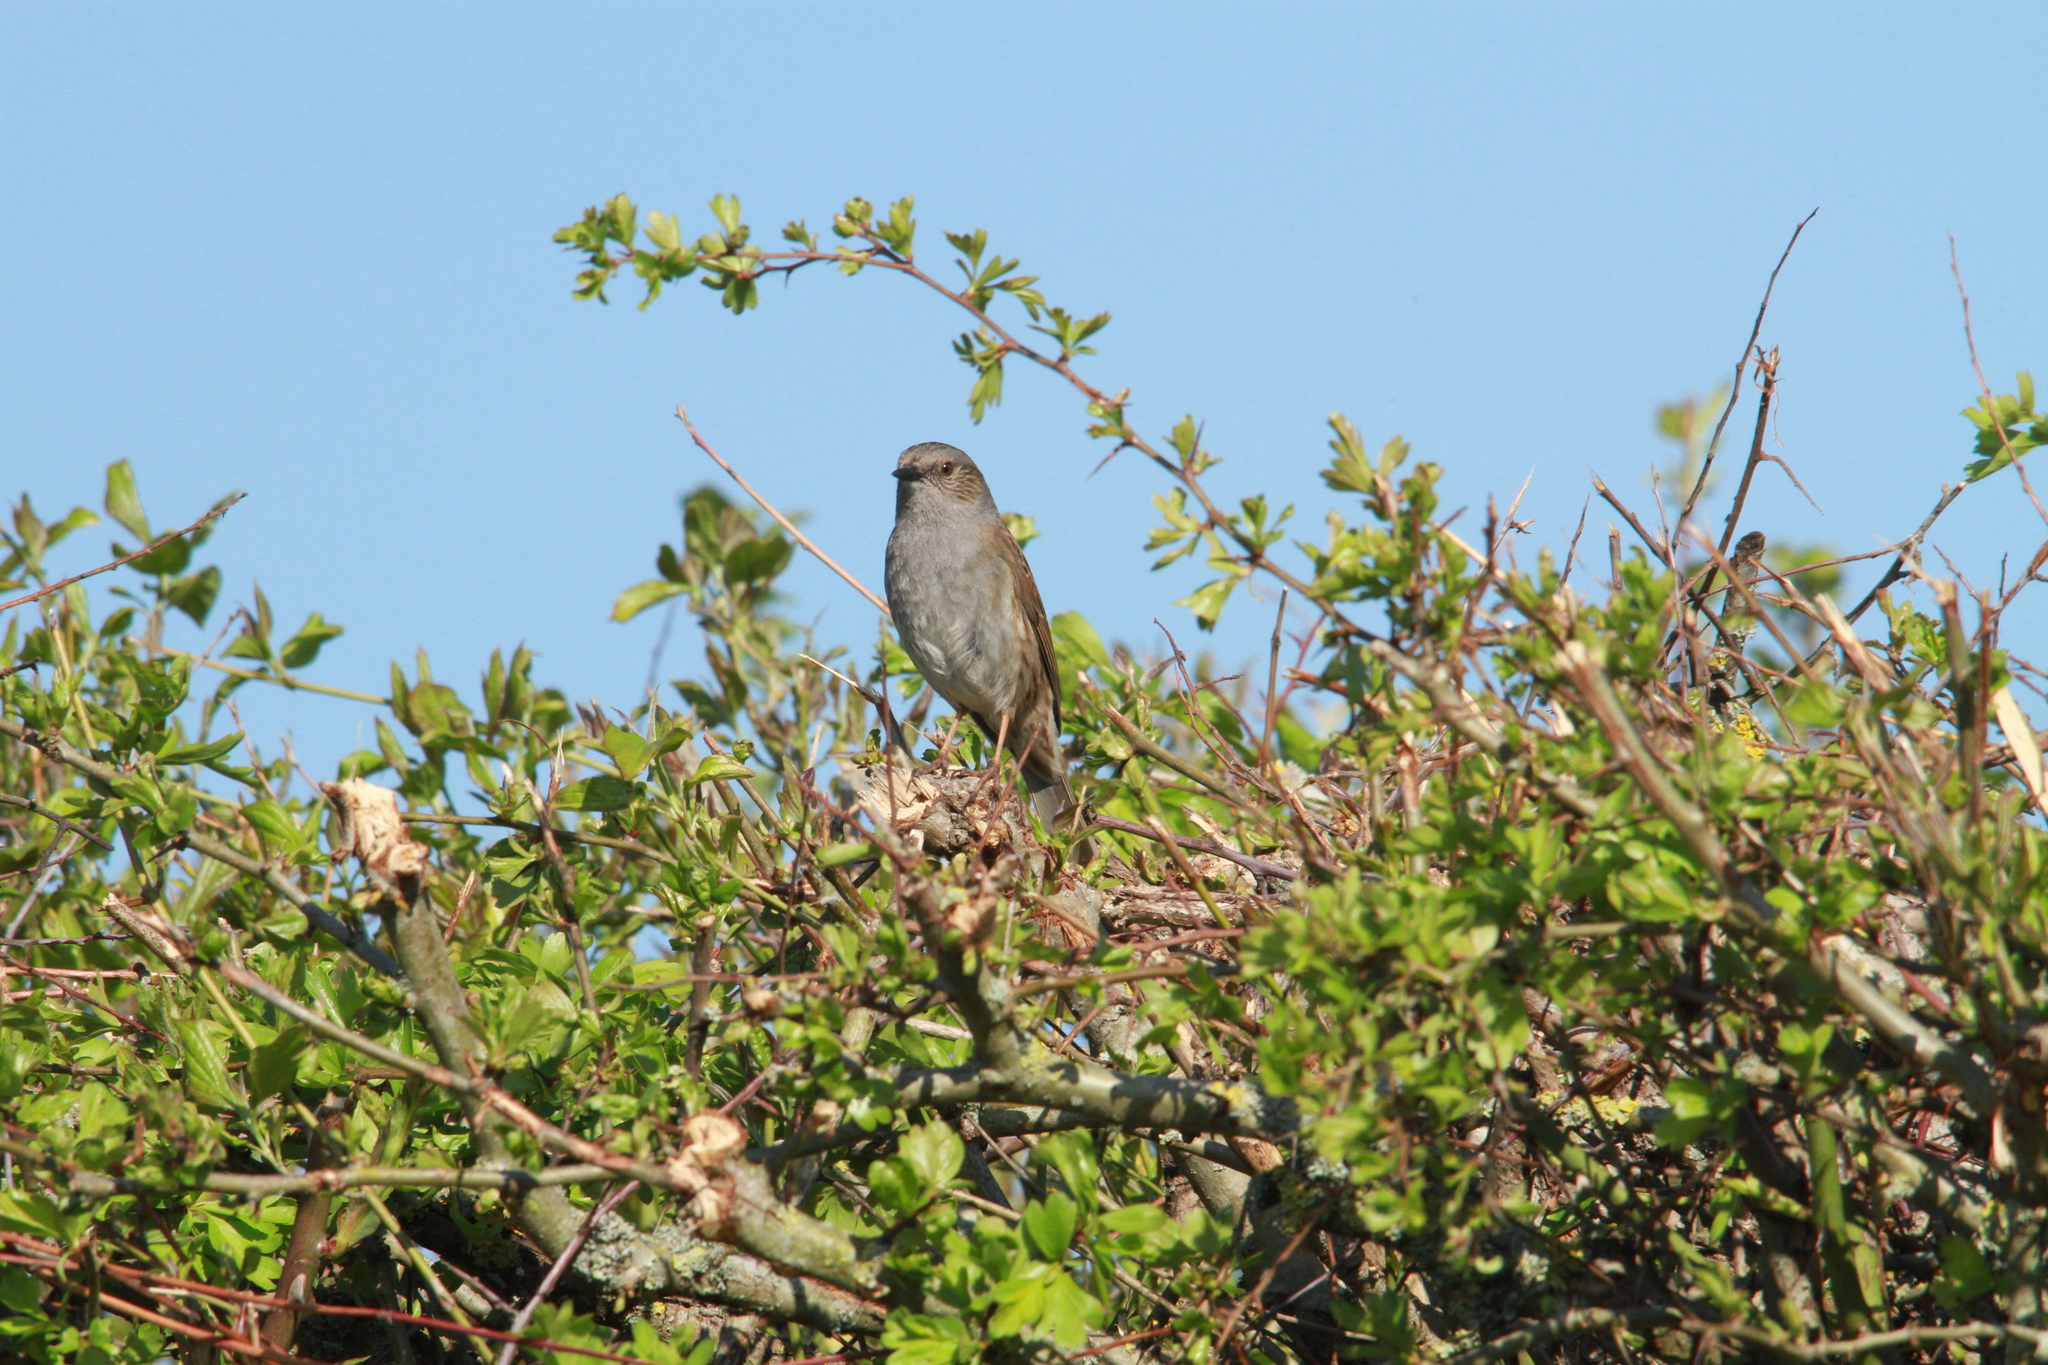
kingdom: Animalia
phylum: Chordata
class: Aves
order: Passeriformes
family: Prunellidae
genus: Prunella
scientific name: Prunella modularis
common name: Dunnock
